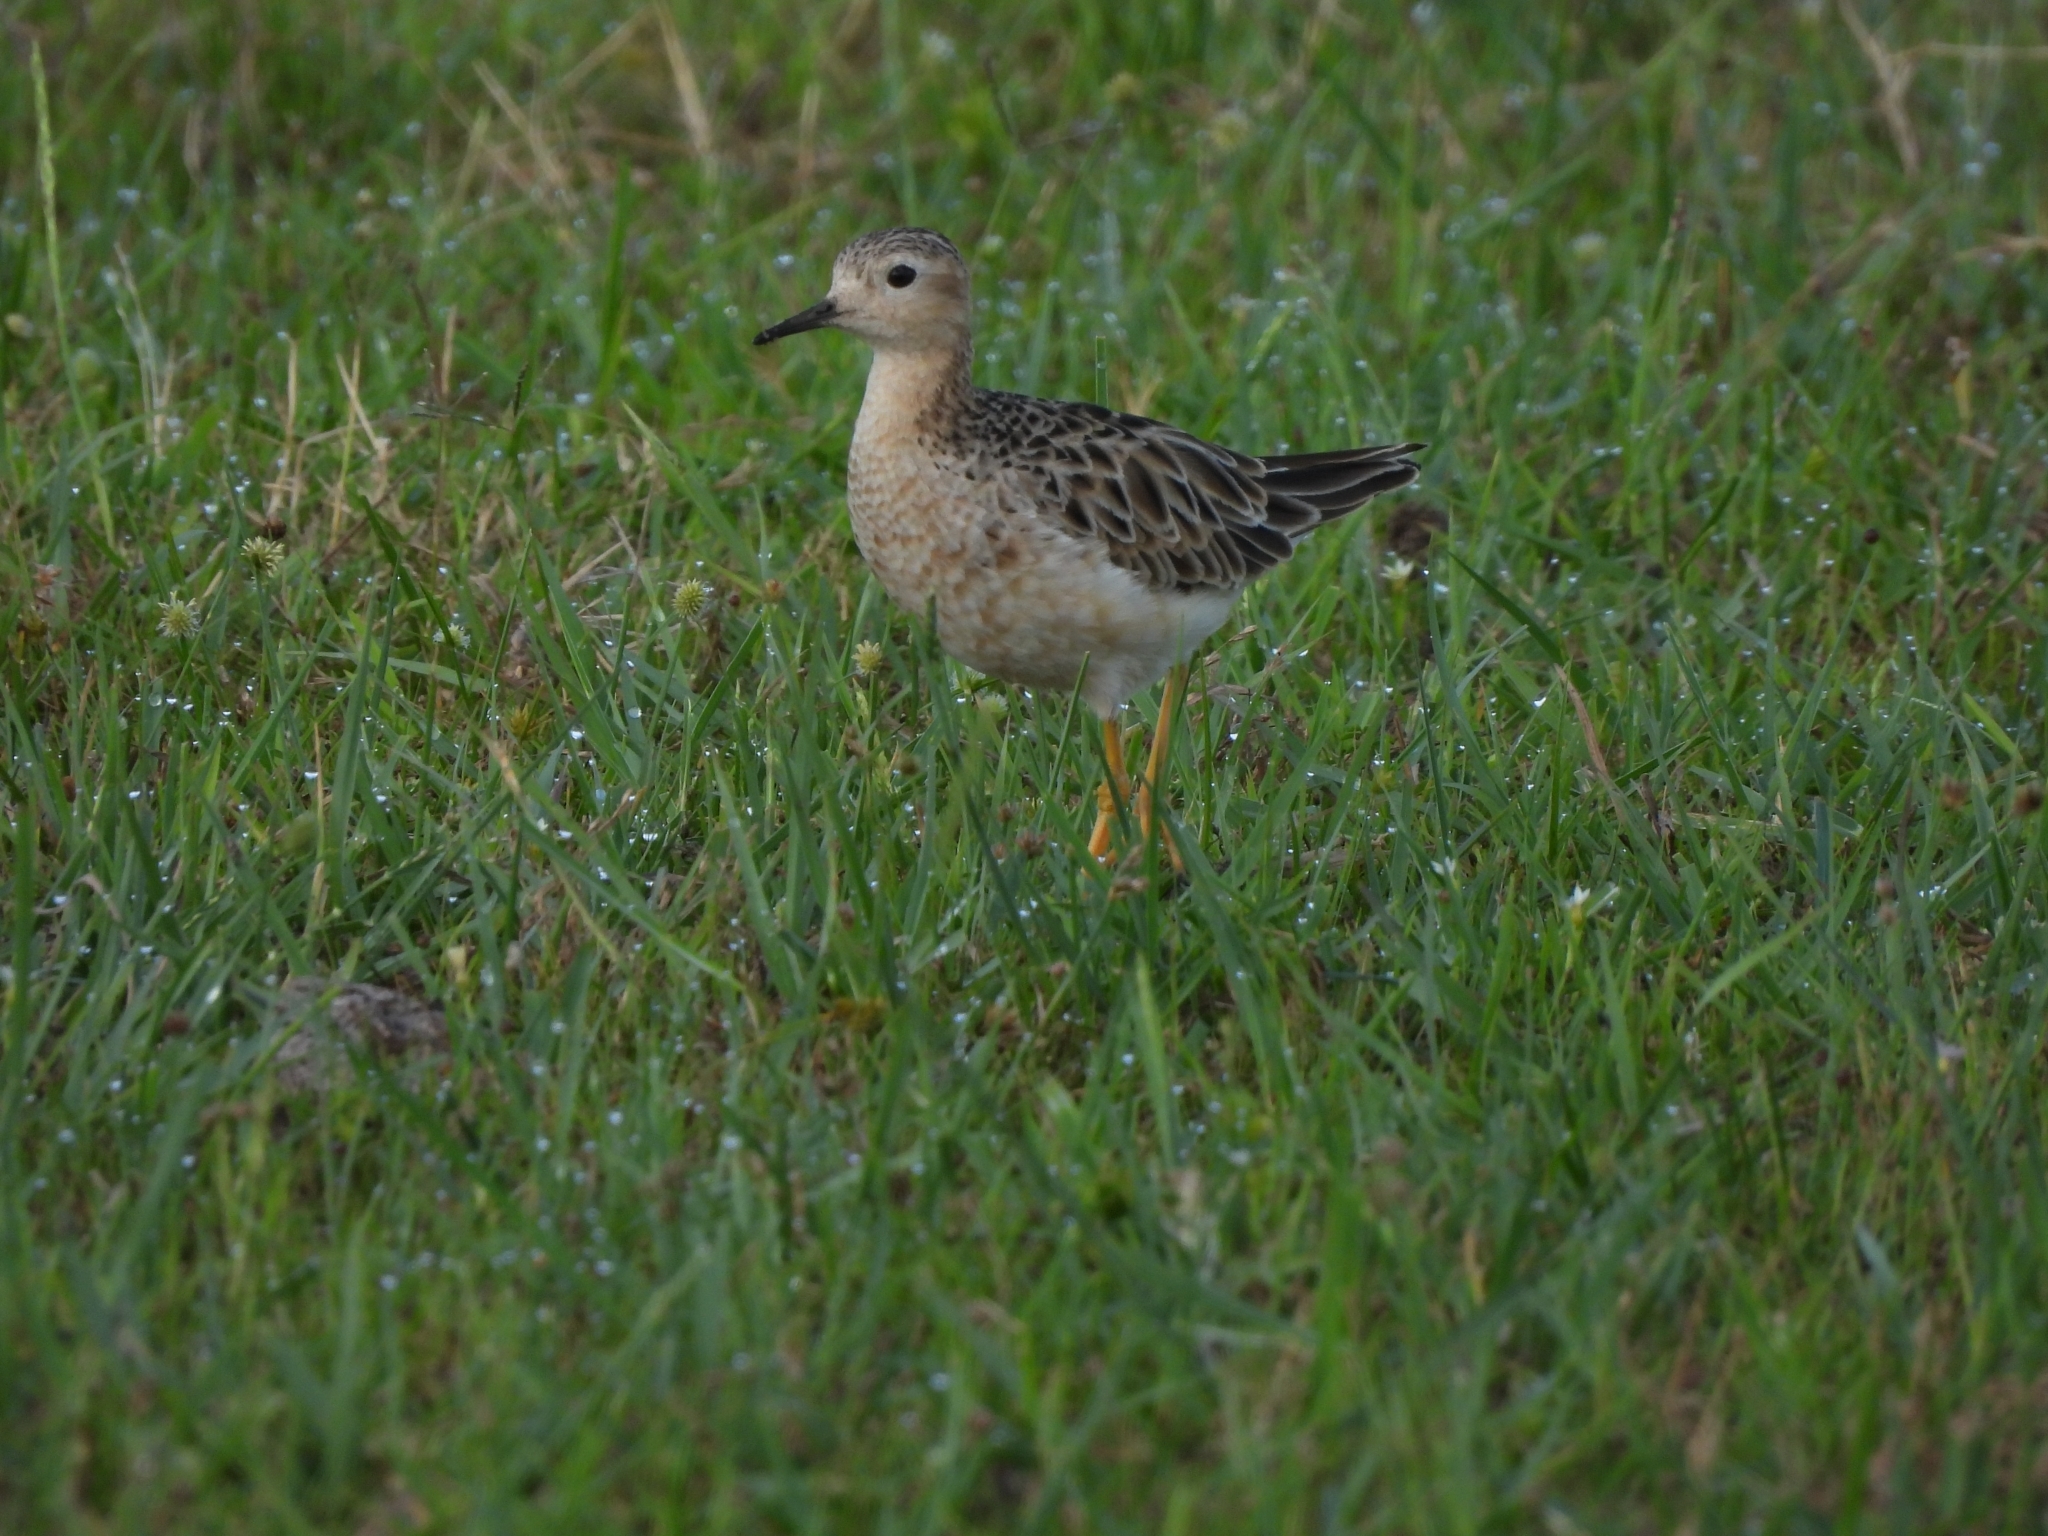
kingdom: Animalia
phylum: Chordata
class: Aves
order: Charadriiformes
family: Scolopacidae
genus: Calidris
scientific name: Calidris subruficollis
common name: Buff-breasted sandpiper
